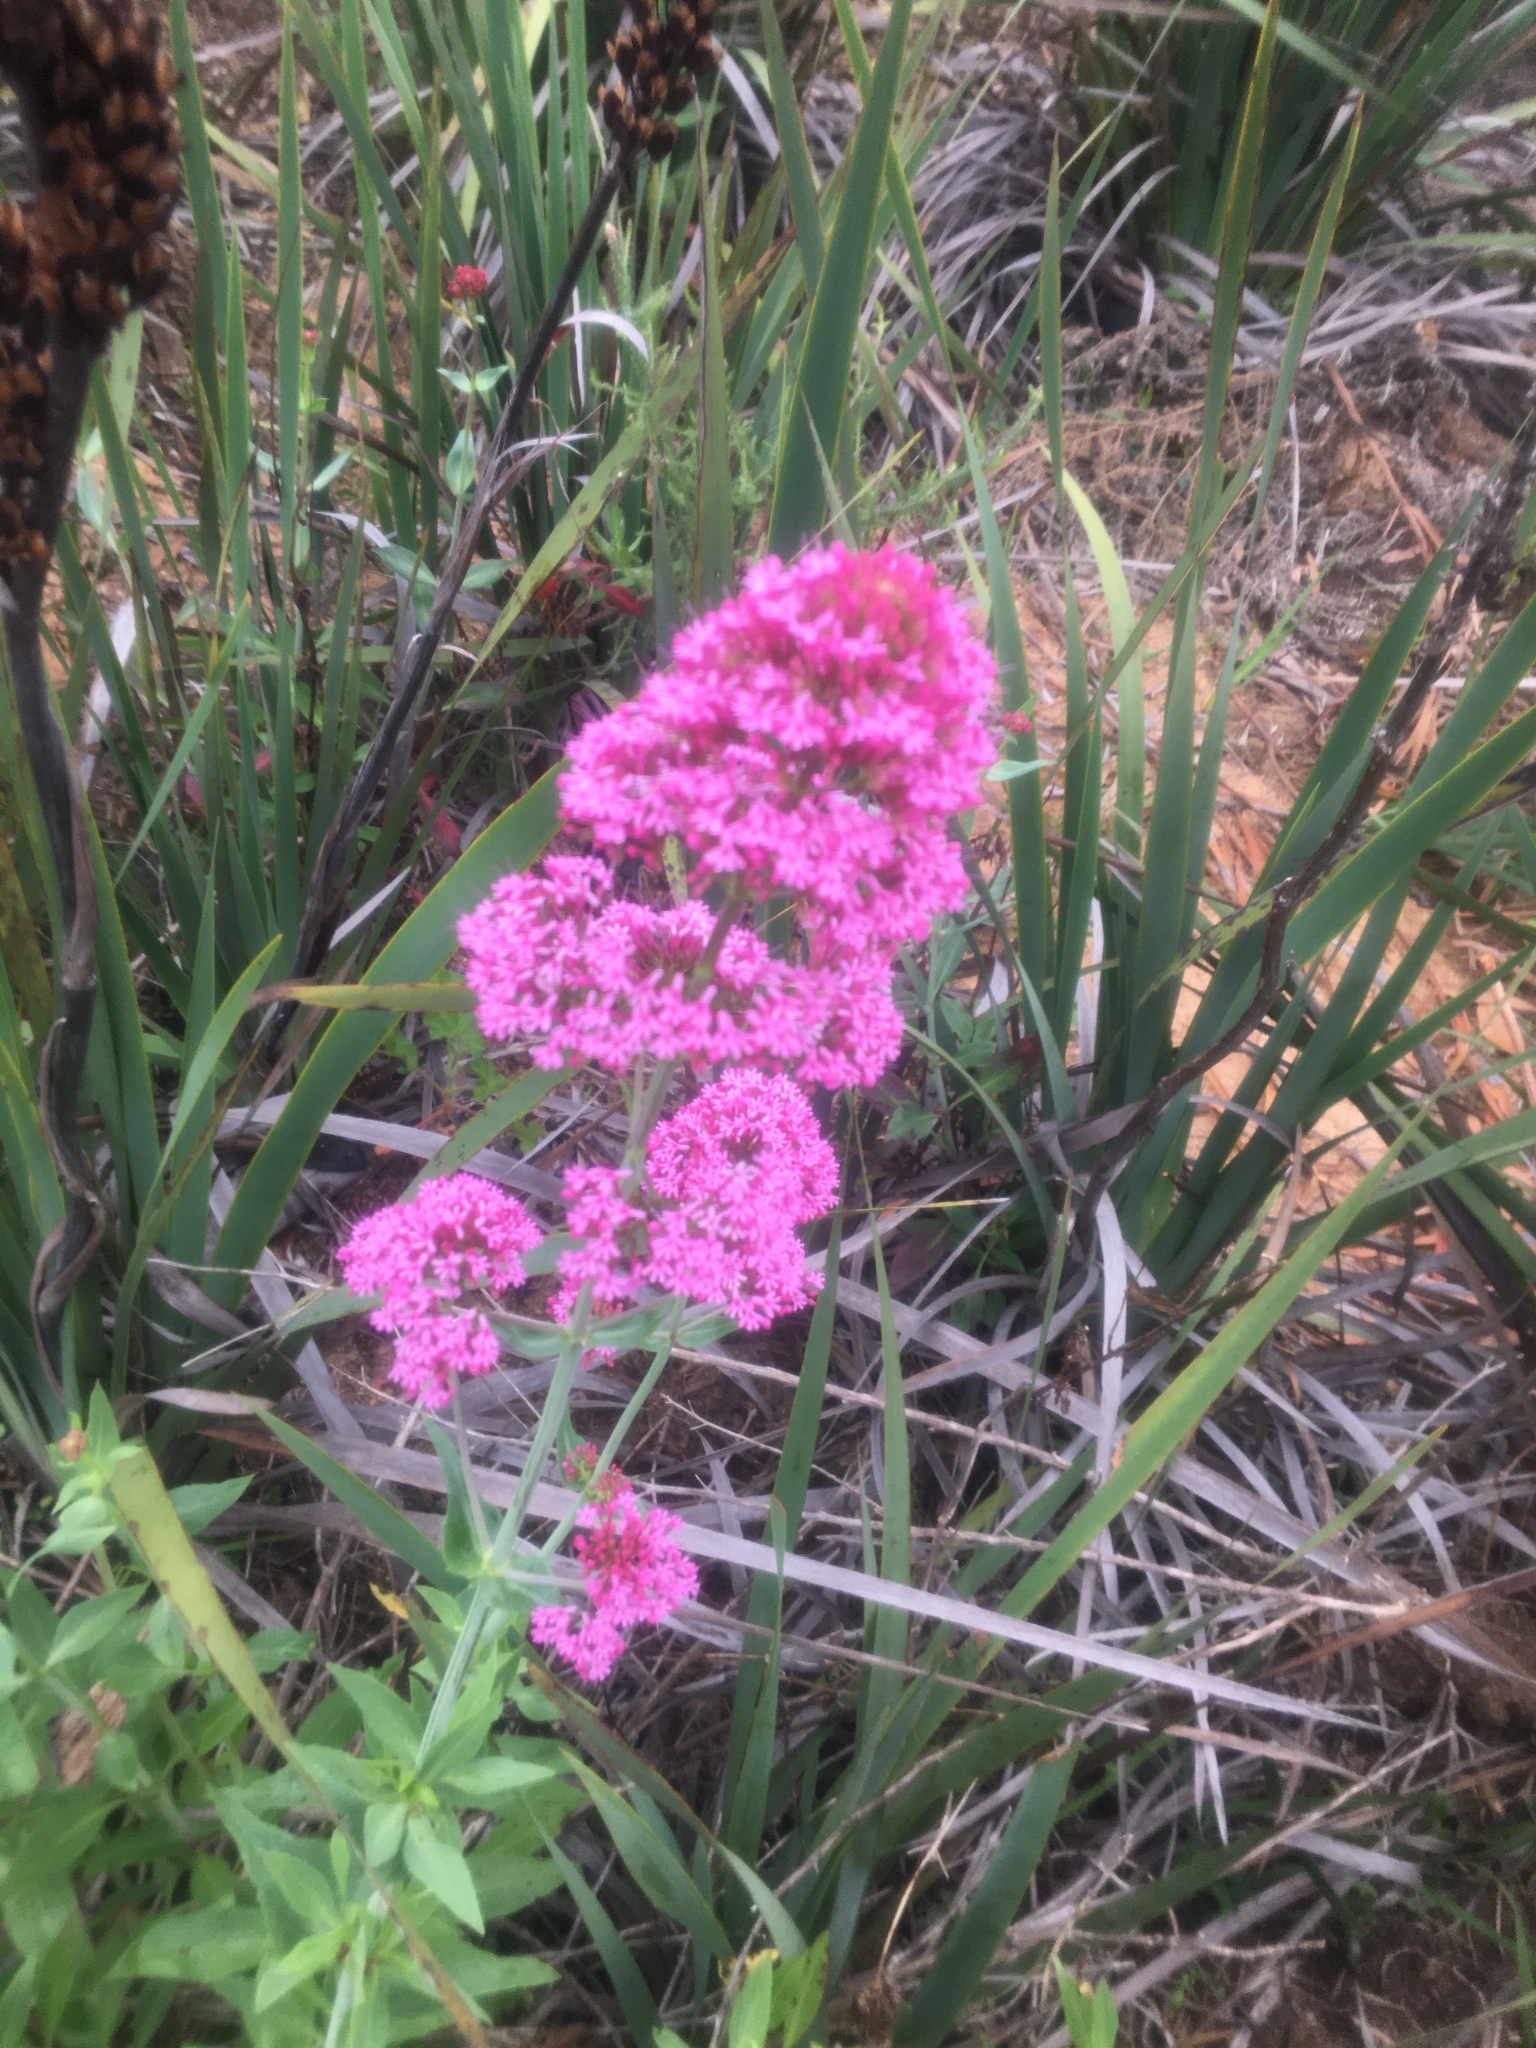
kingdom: Plantae
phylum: Tracheophyta
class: Magnoliopsida
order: Dipsacales
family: Caprifoliaceae
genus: Centranthus
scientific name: Centranthus ruber
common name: Red valerian
